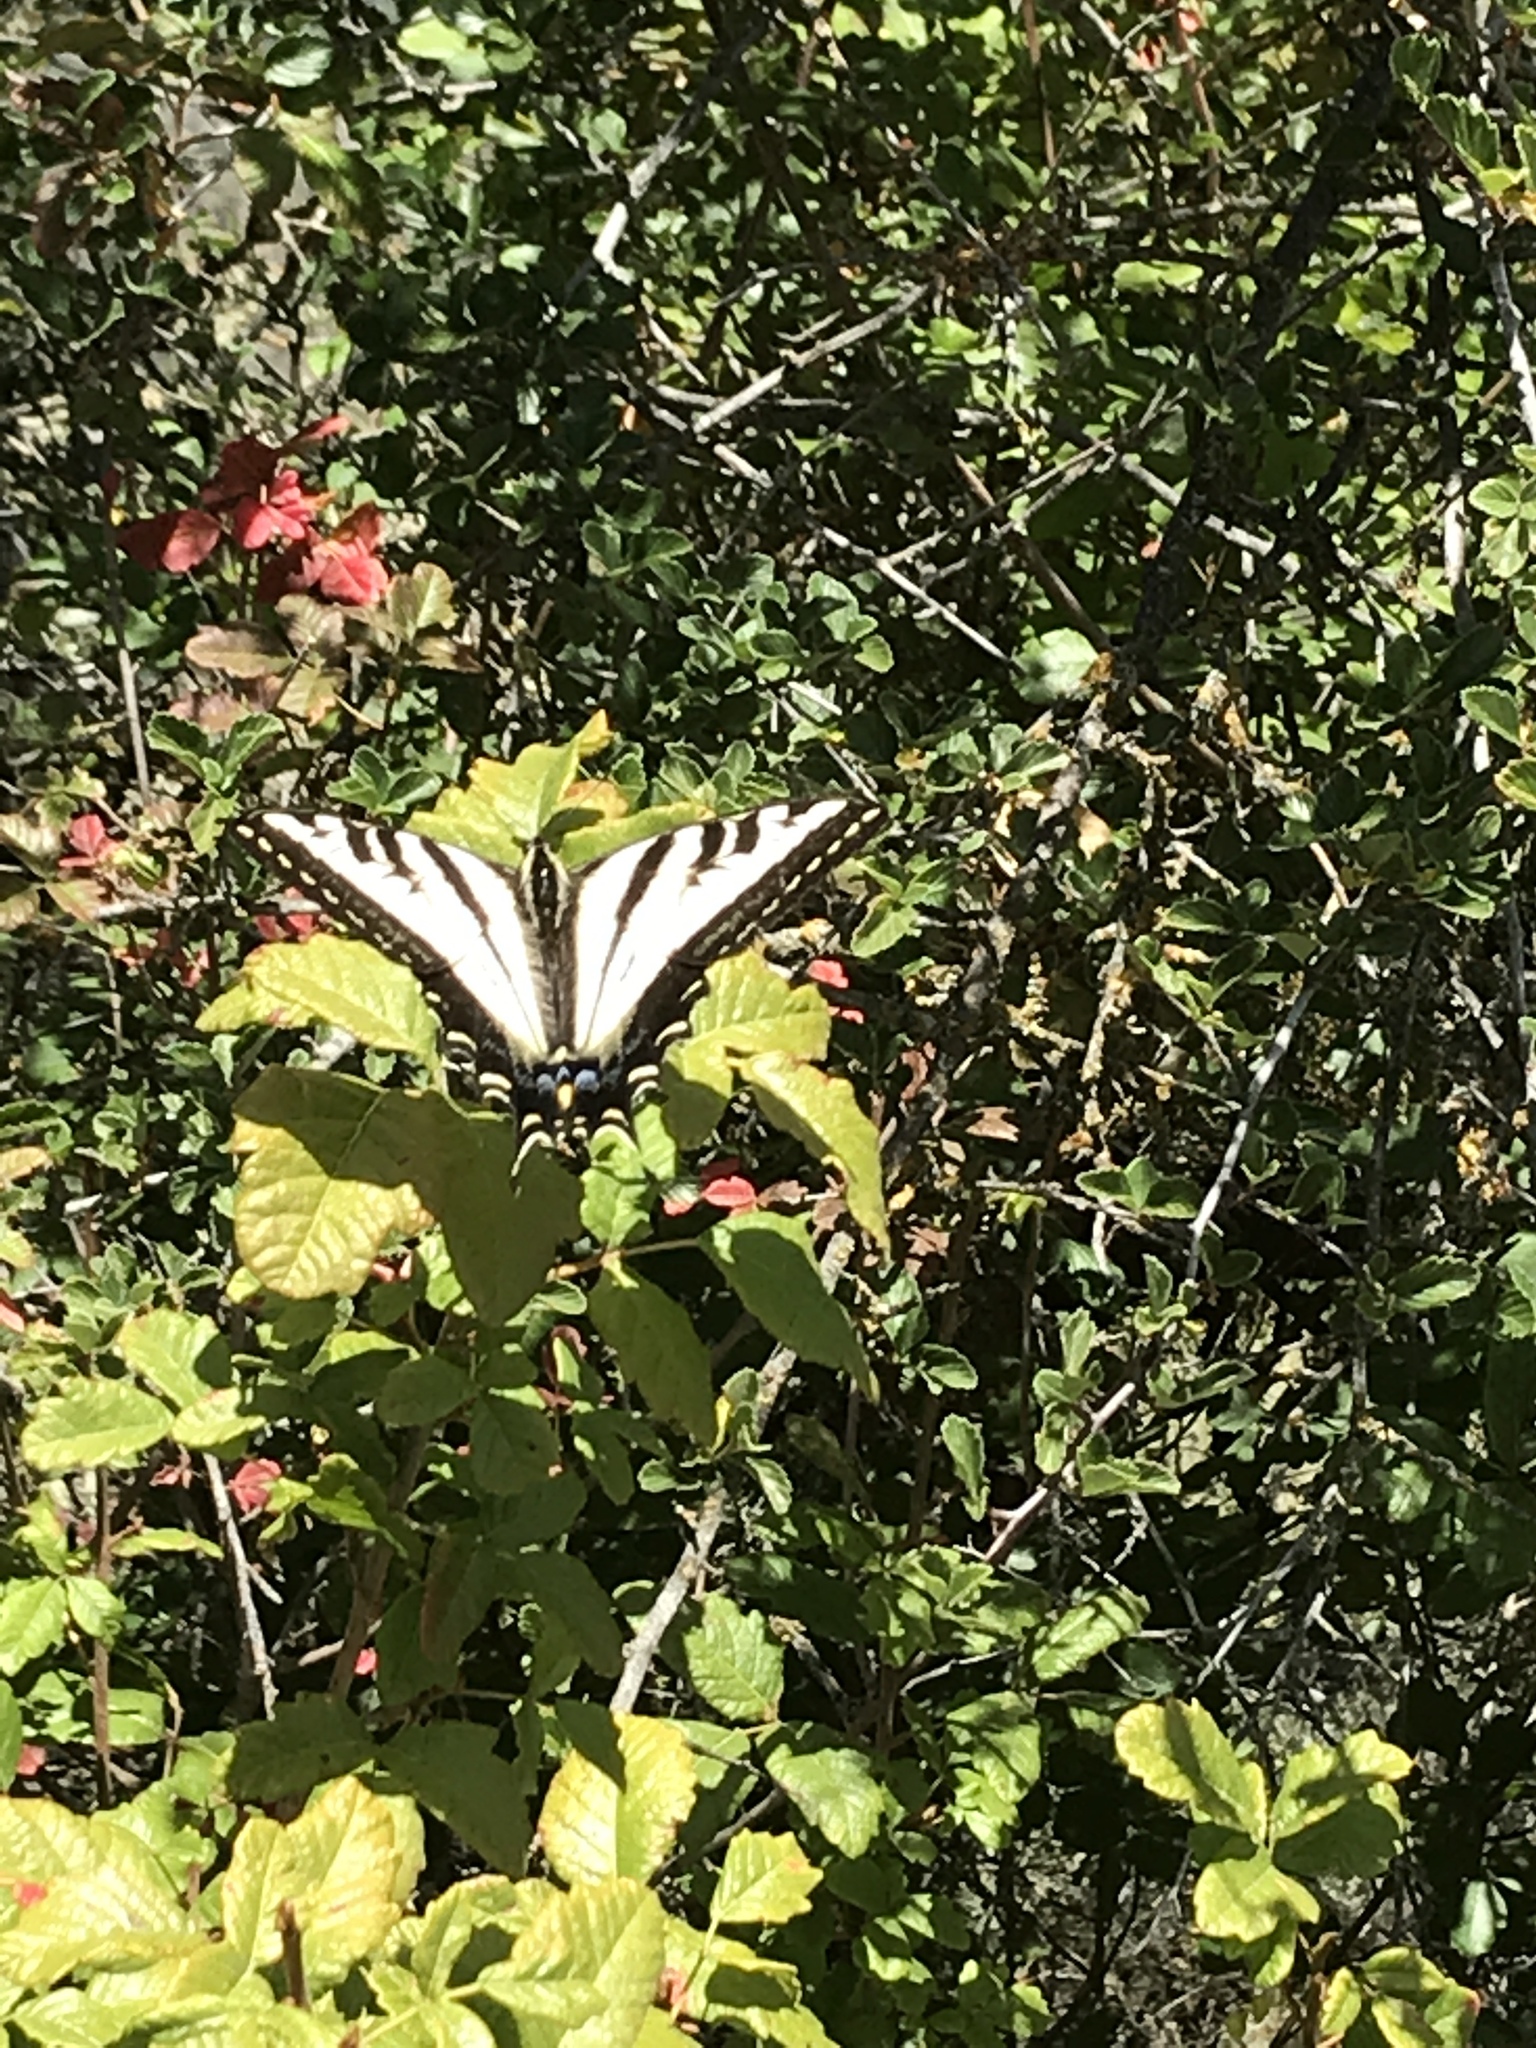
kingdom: Animalia
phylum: Arthropoda
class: Insecta
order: Lepidoptera
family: Papilionidae
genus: Papilio
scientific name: Papilio eurymedon
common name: Pale tiger swallowtail
